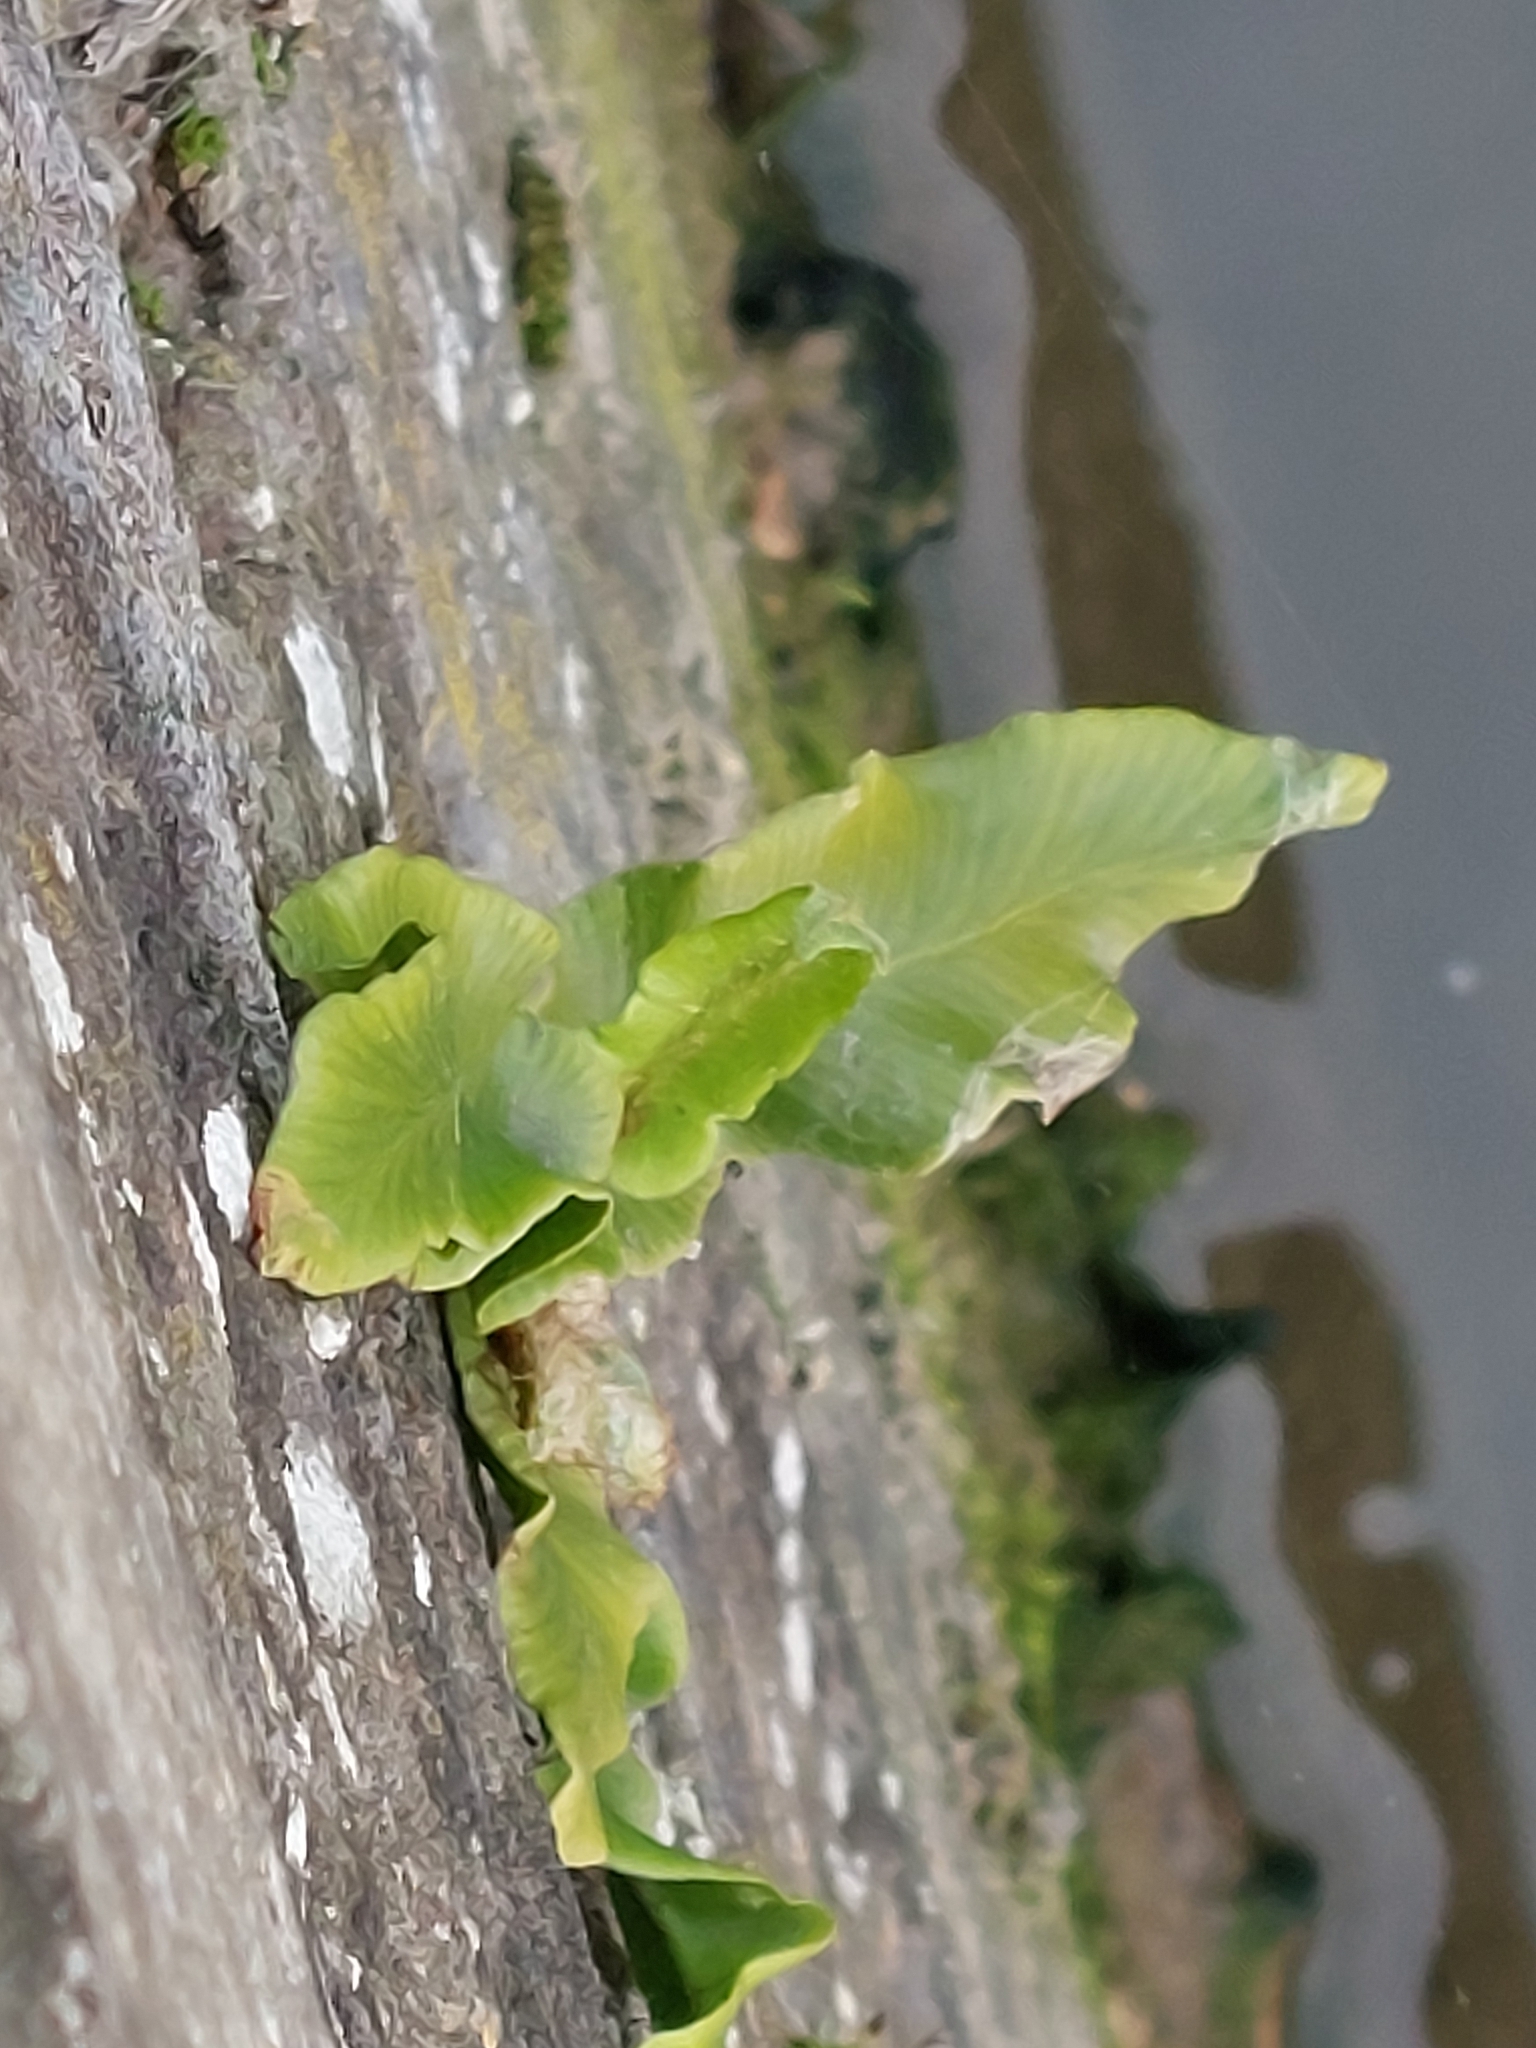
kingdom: Plantae
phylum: Tracheophyta
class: Polypodiopsida
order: Polypodiales
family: Aspleniaceae
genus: Asplenium
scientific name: Asplenium scolopendrium
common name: Hart's-tongue fern
